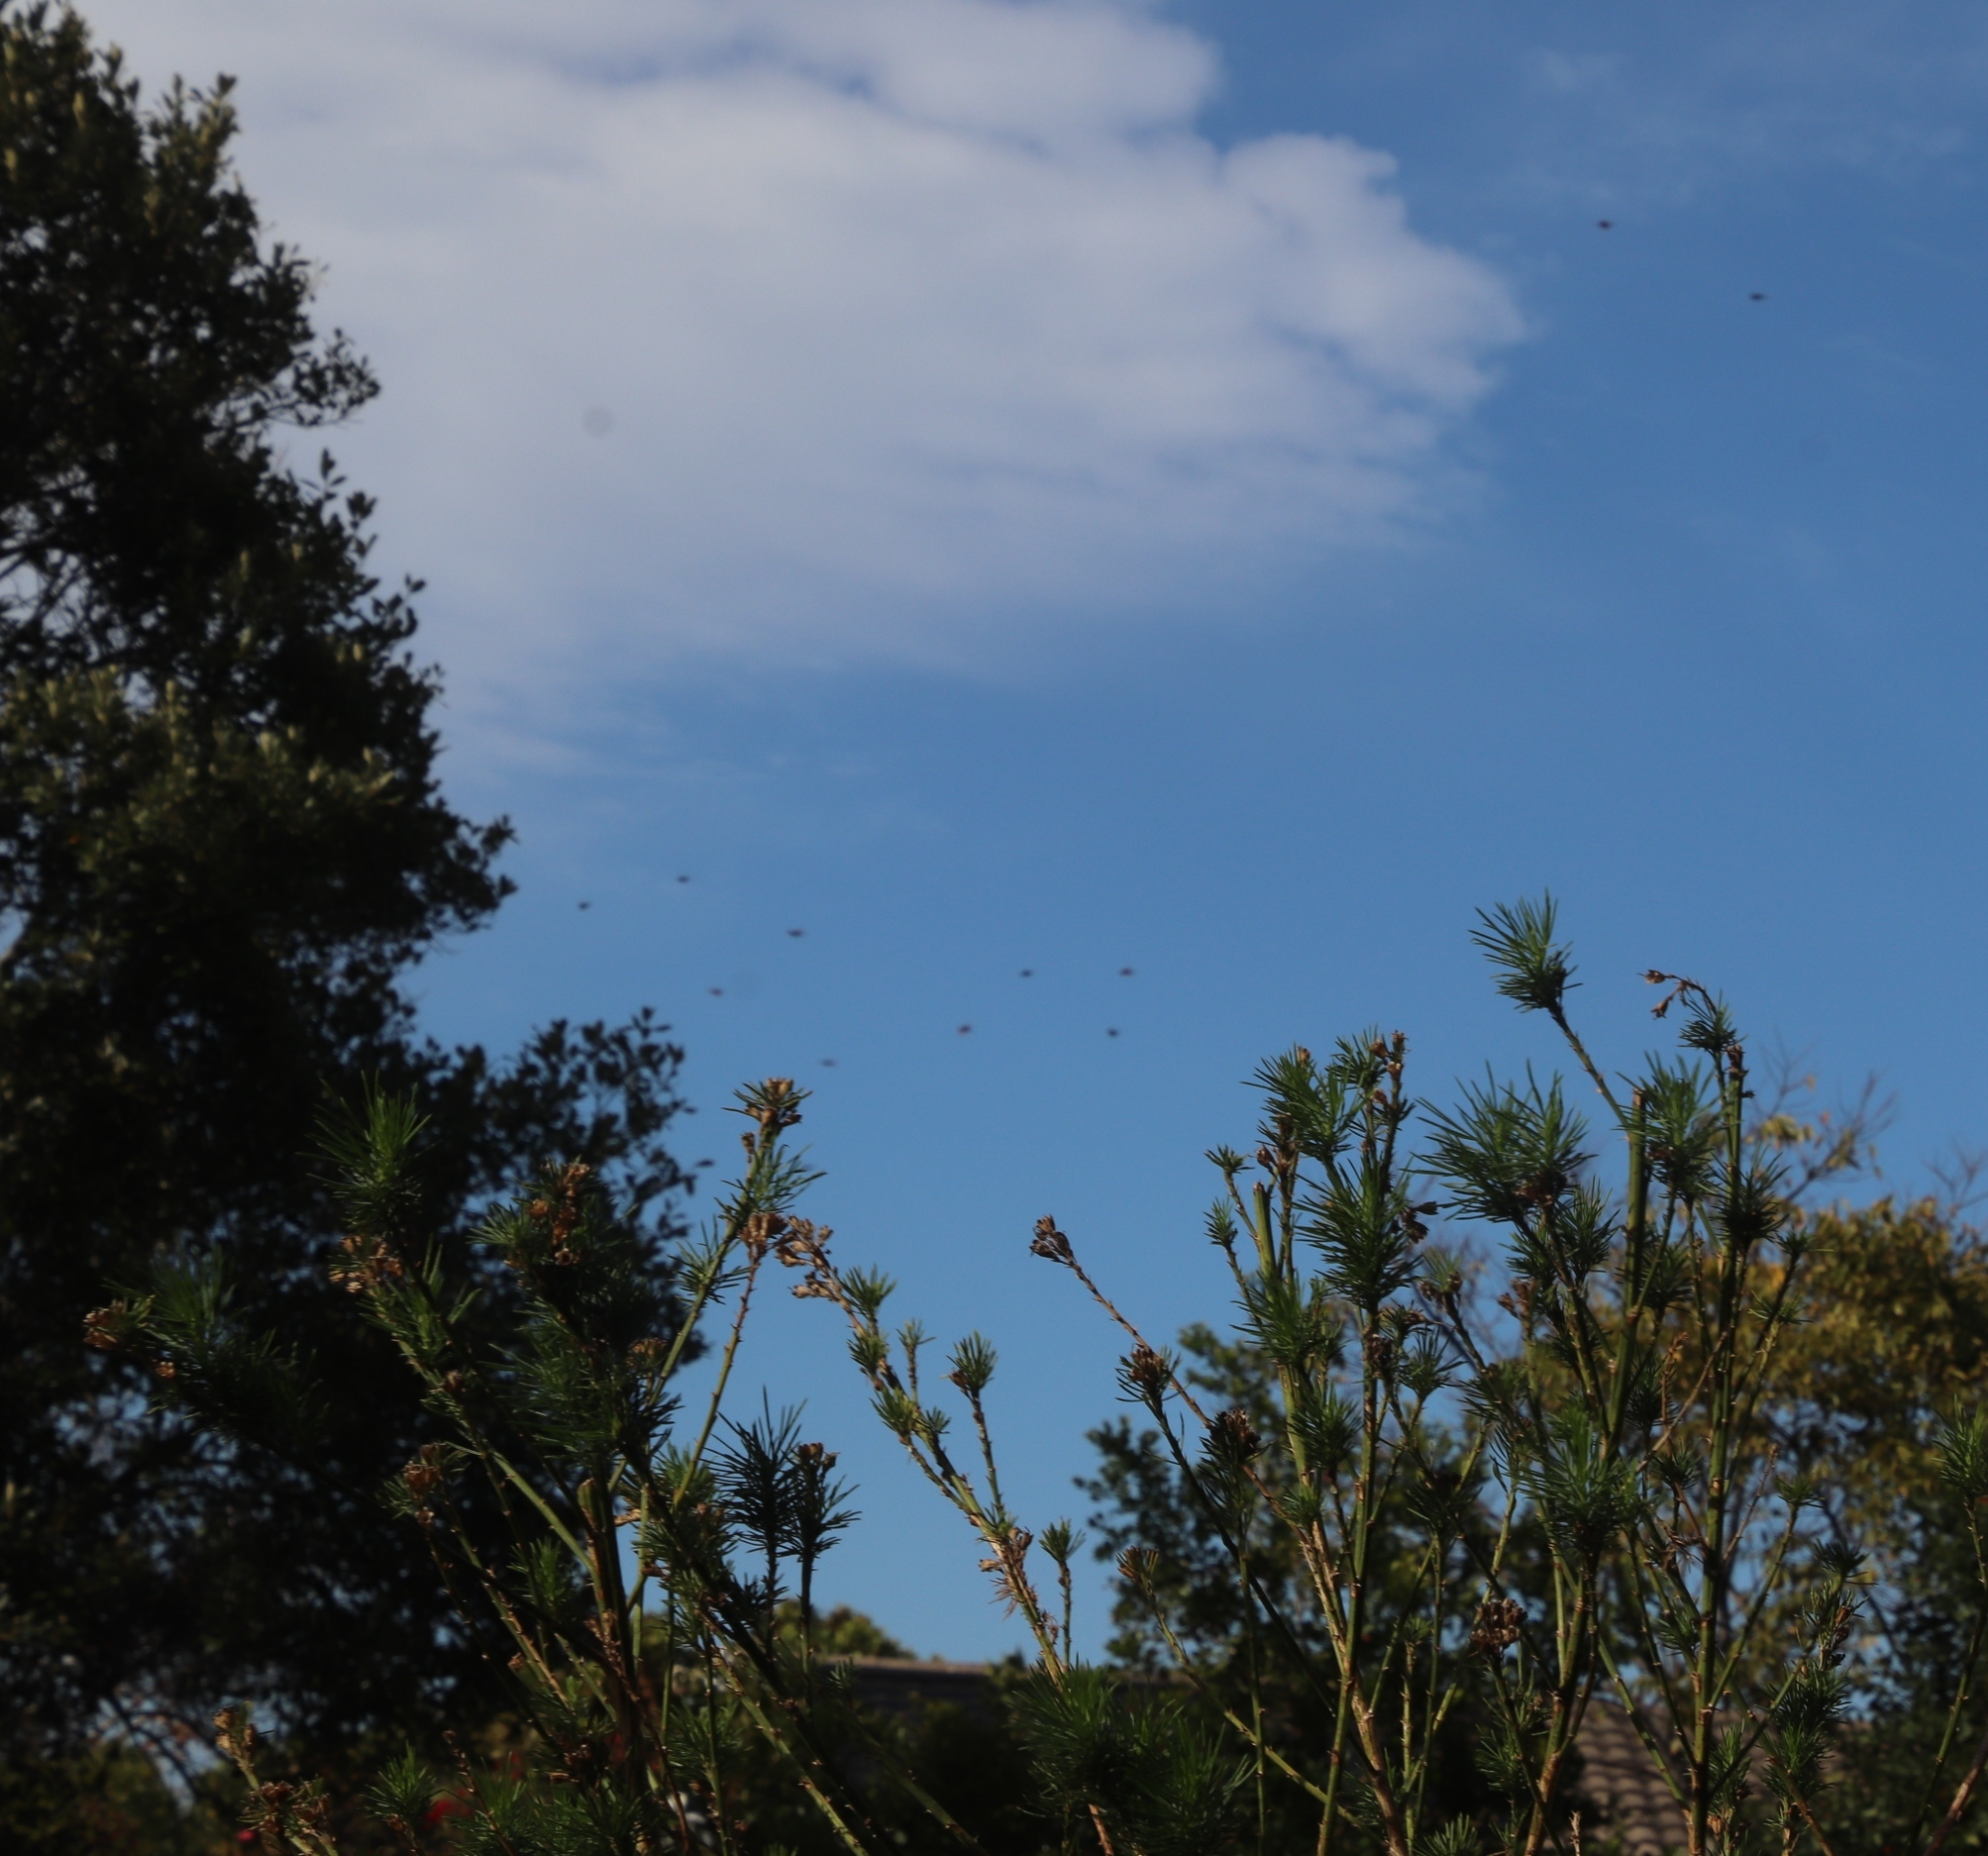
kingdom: Animalia
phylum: Chordata
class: Aves
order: Passeriformes
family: Sturnidae
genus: Onychognathus
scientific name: Onychognathus morio
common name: Red-winged starling
